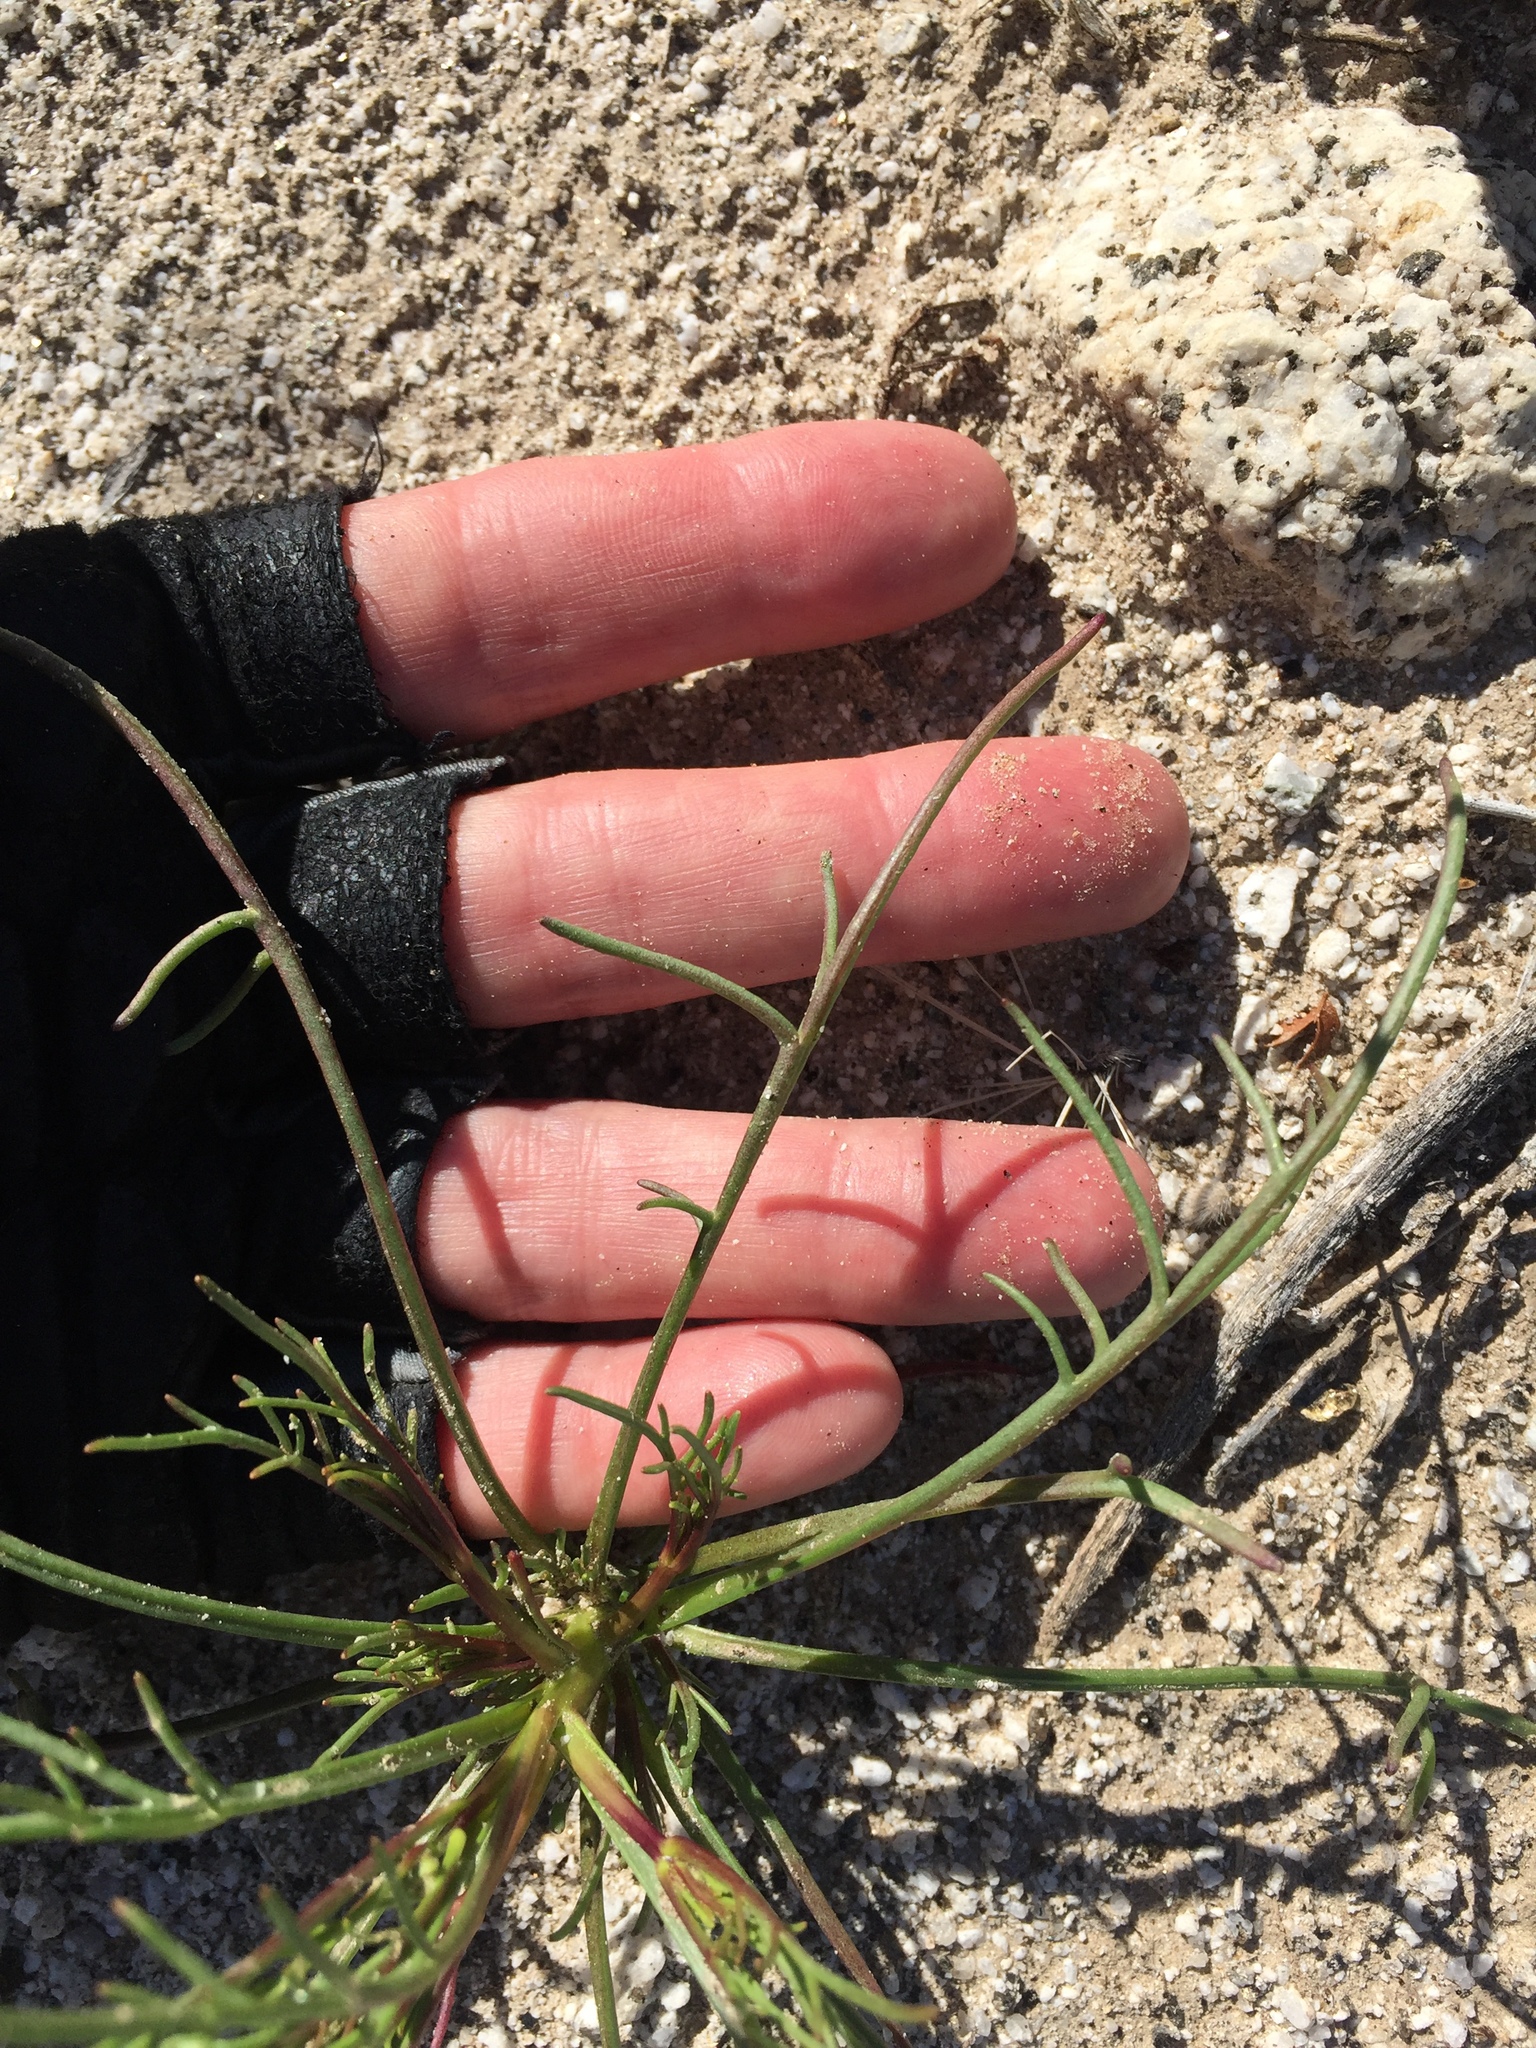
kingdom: Plantae
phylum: Tracheophyta
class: Magnoliopsida
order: Asterales
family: Asteraceae
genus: Chaenactis
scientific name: Chaenactis fremontii
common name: Fremont pincushion
